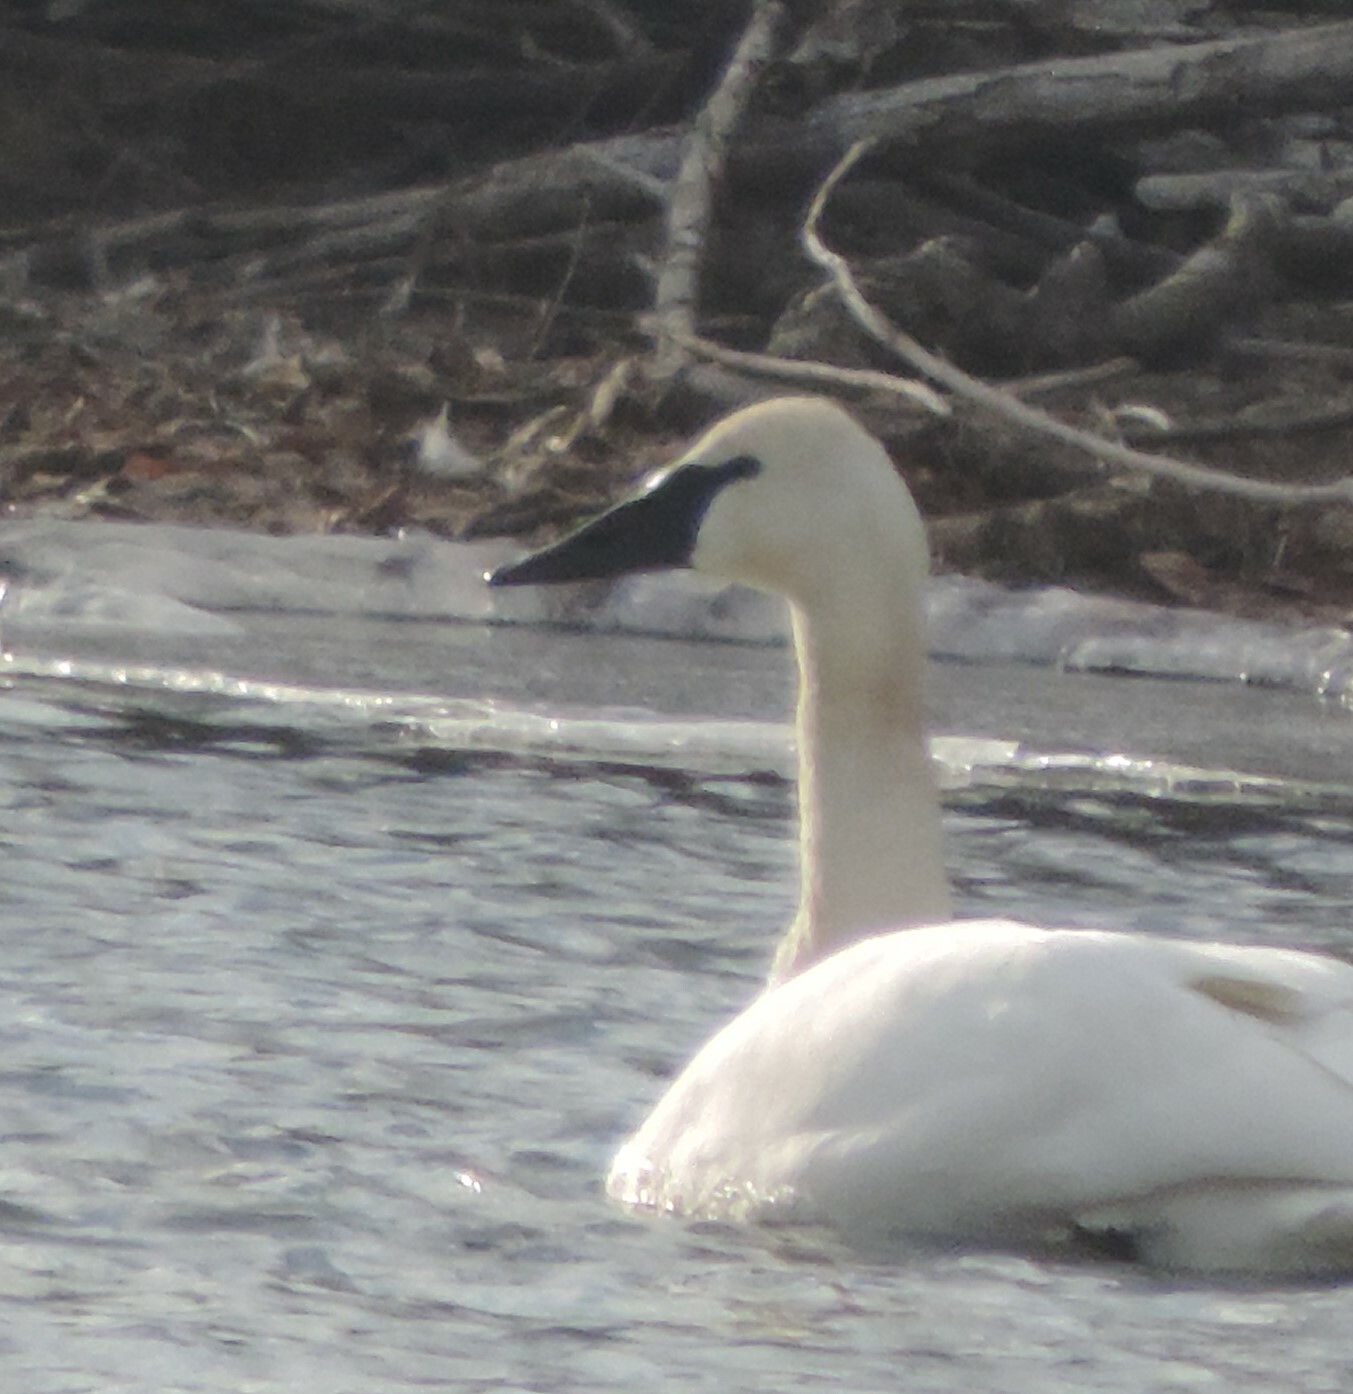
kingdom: Animalia
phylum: Chordata
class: Aves
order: Anseriformes
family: Anatidae
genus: Cygnus
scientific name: Cygnus buccinator
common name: Trumpeter swan
